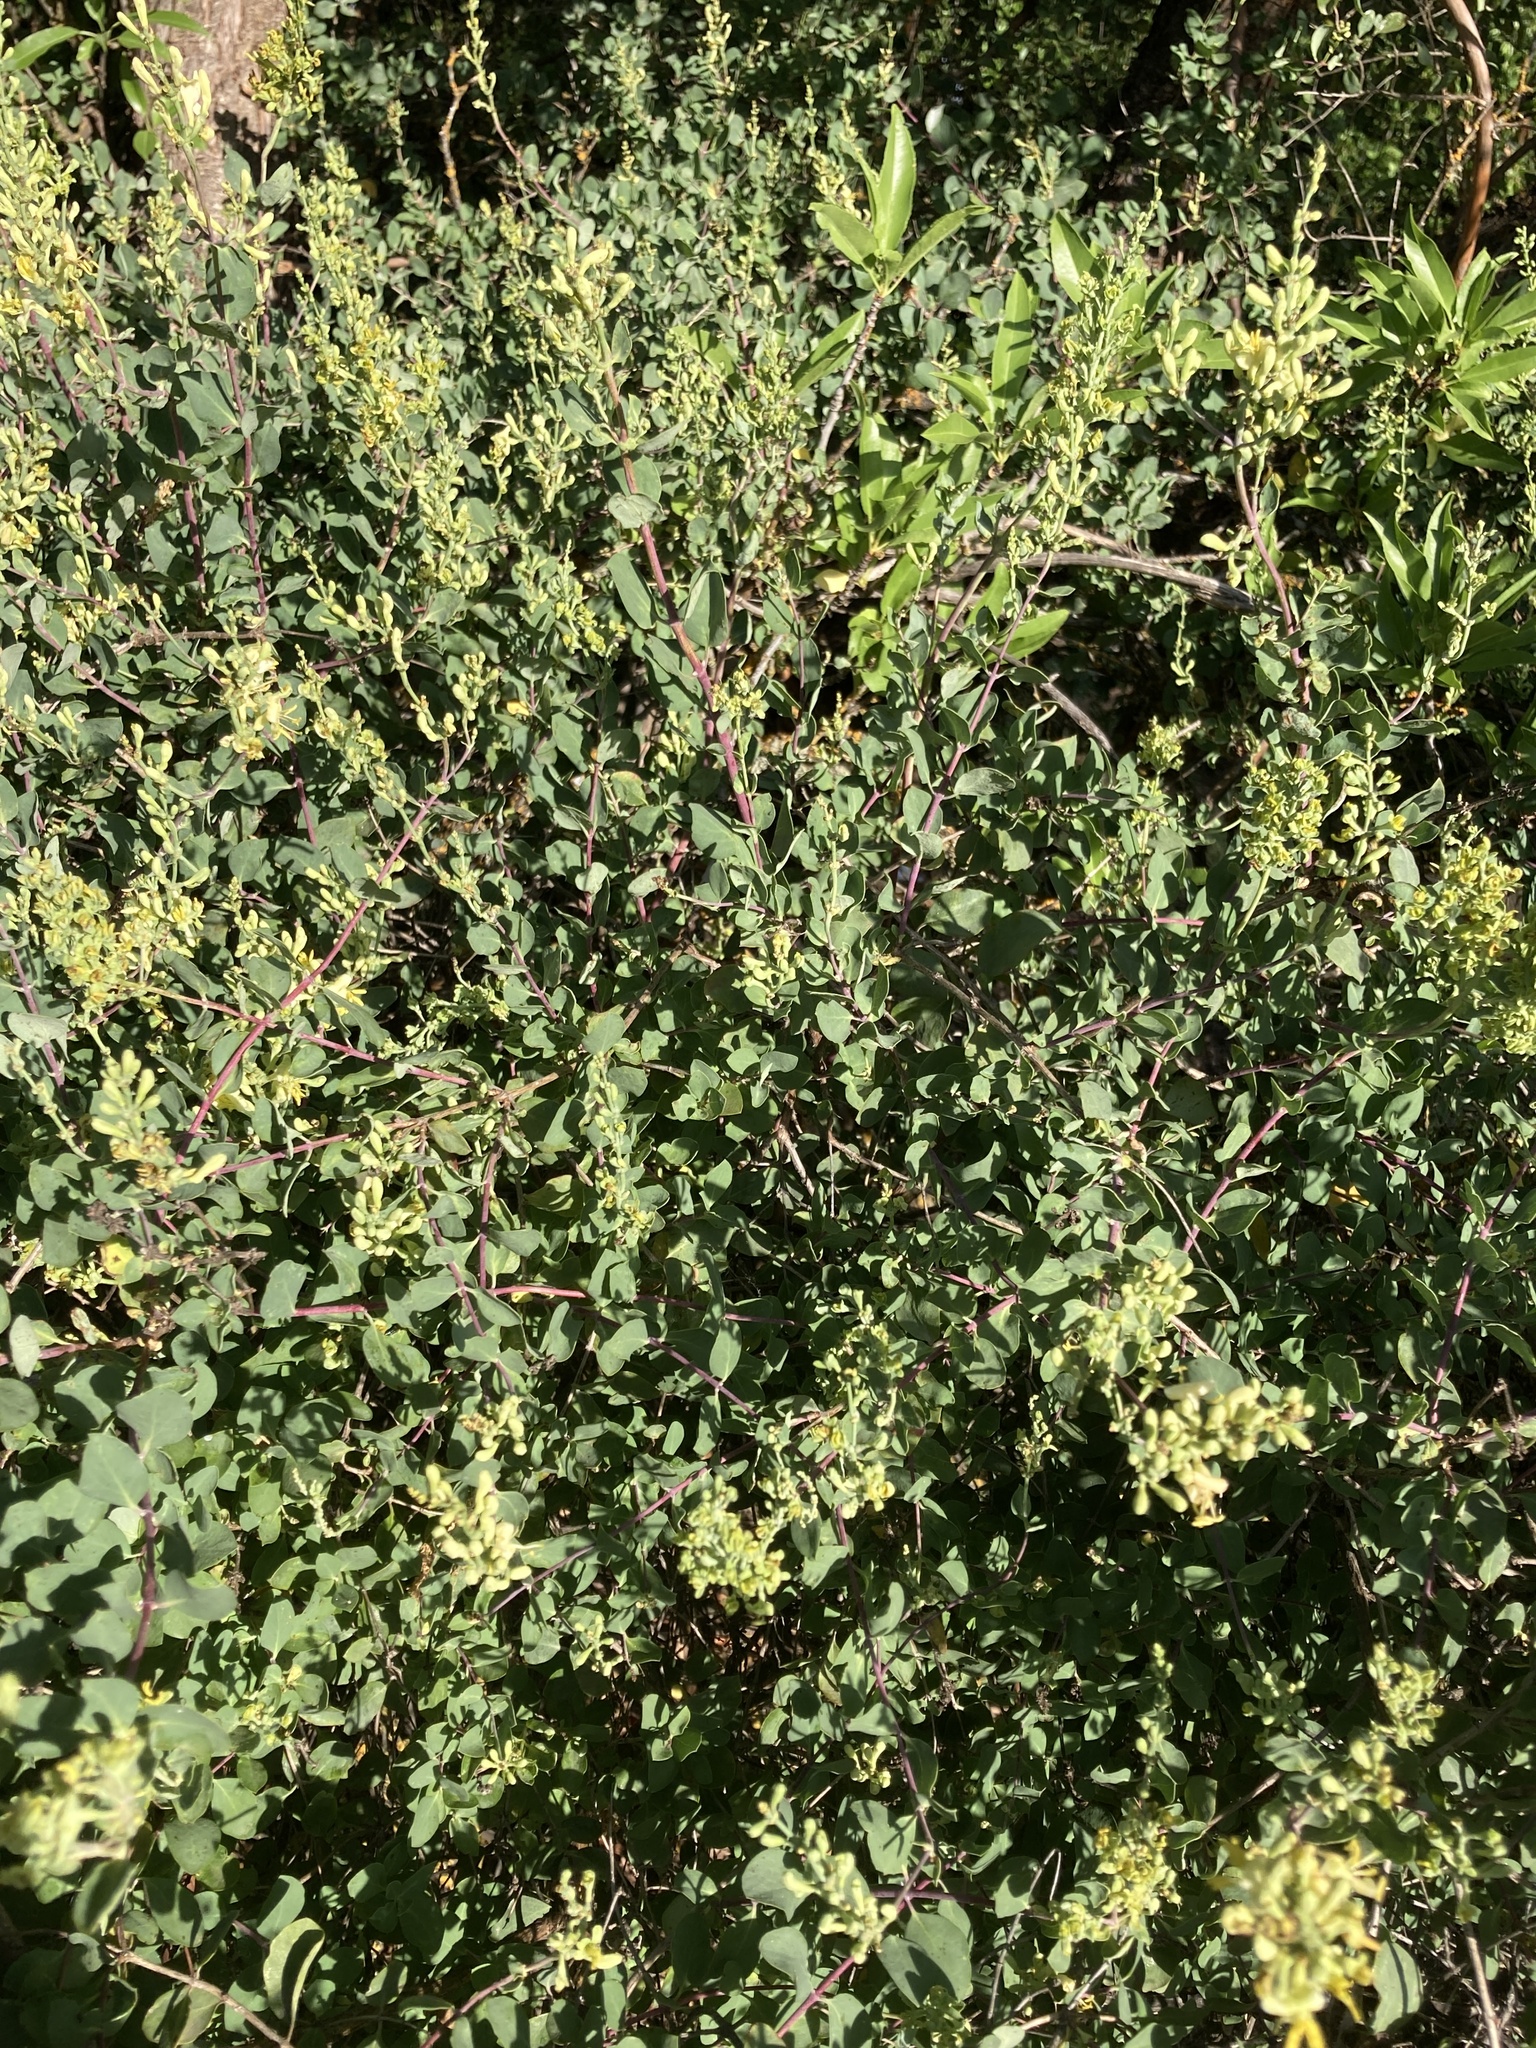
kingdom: Plantae
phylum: Tracheophyta
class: Magnoliopsida
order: Dipsacales
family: Caprifoliaceae
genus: Lonicera
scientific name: Lonicera subspicata
